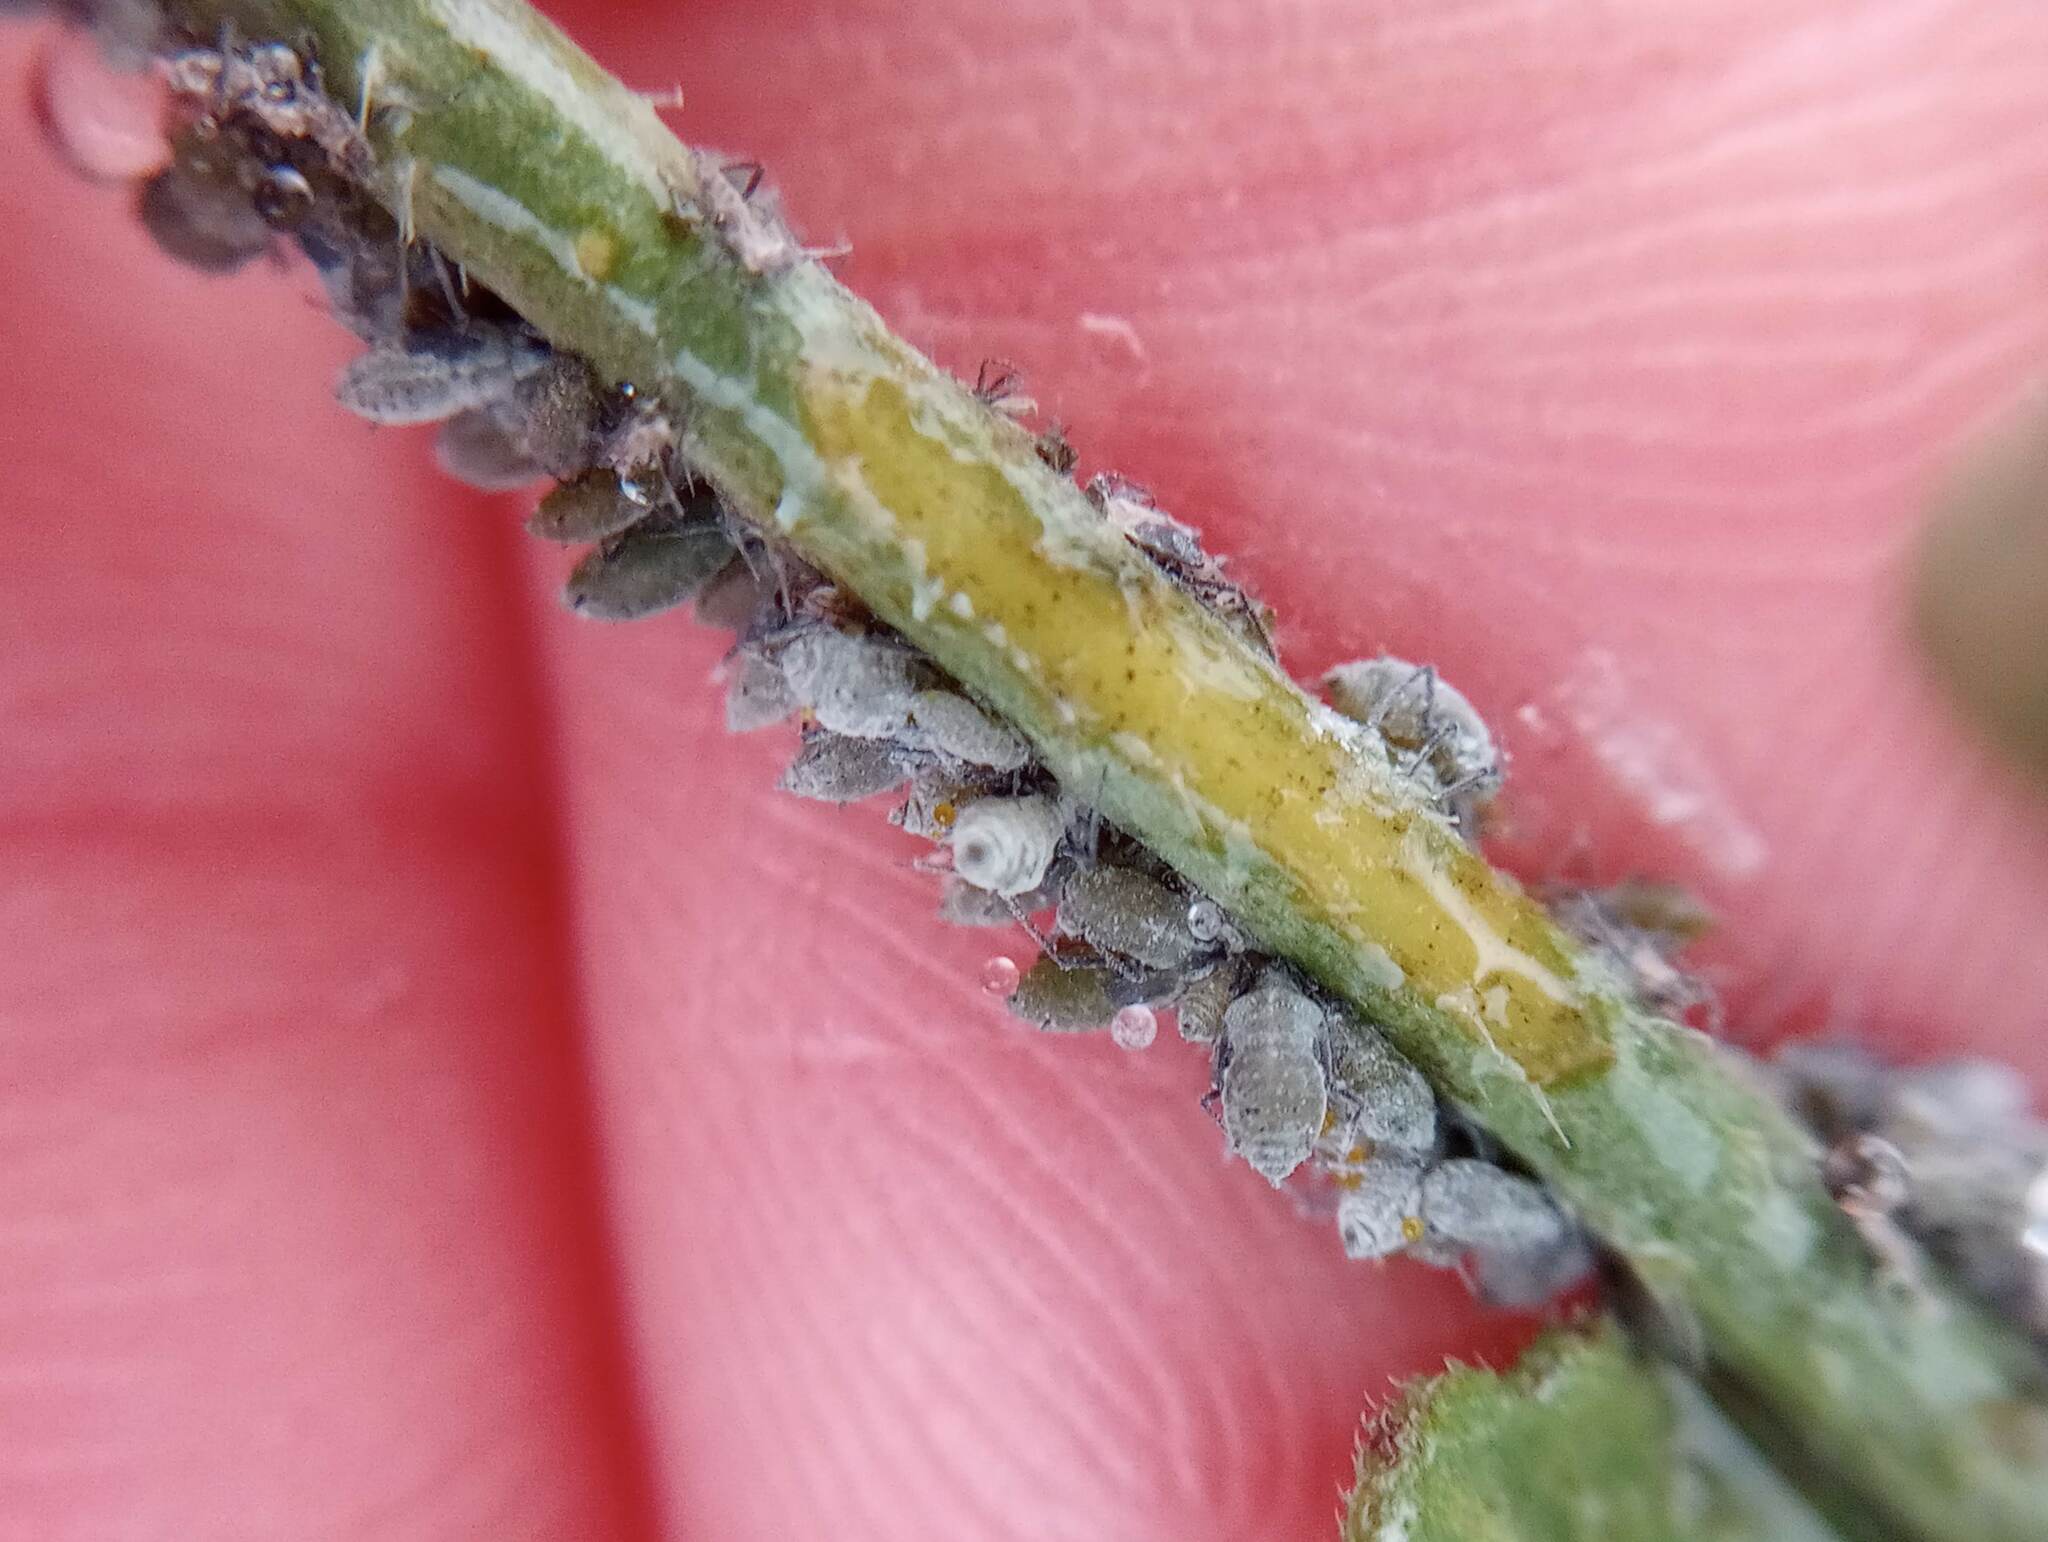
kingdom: Animalia
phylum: Arthropoda
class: Insecta
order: Hemiptera
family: Aphididae
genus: Brevicoryne
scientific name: Brevicoryne brassicae
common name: Cabbage aphid
